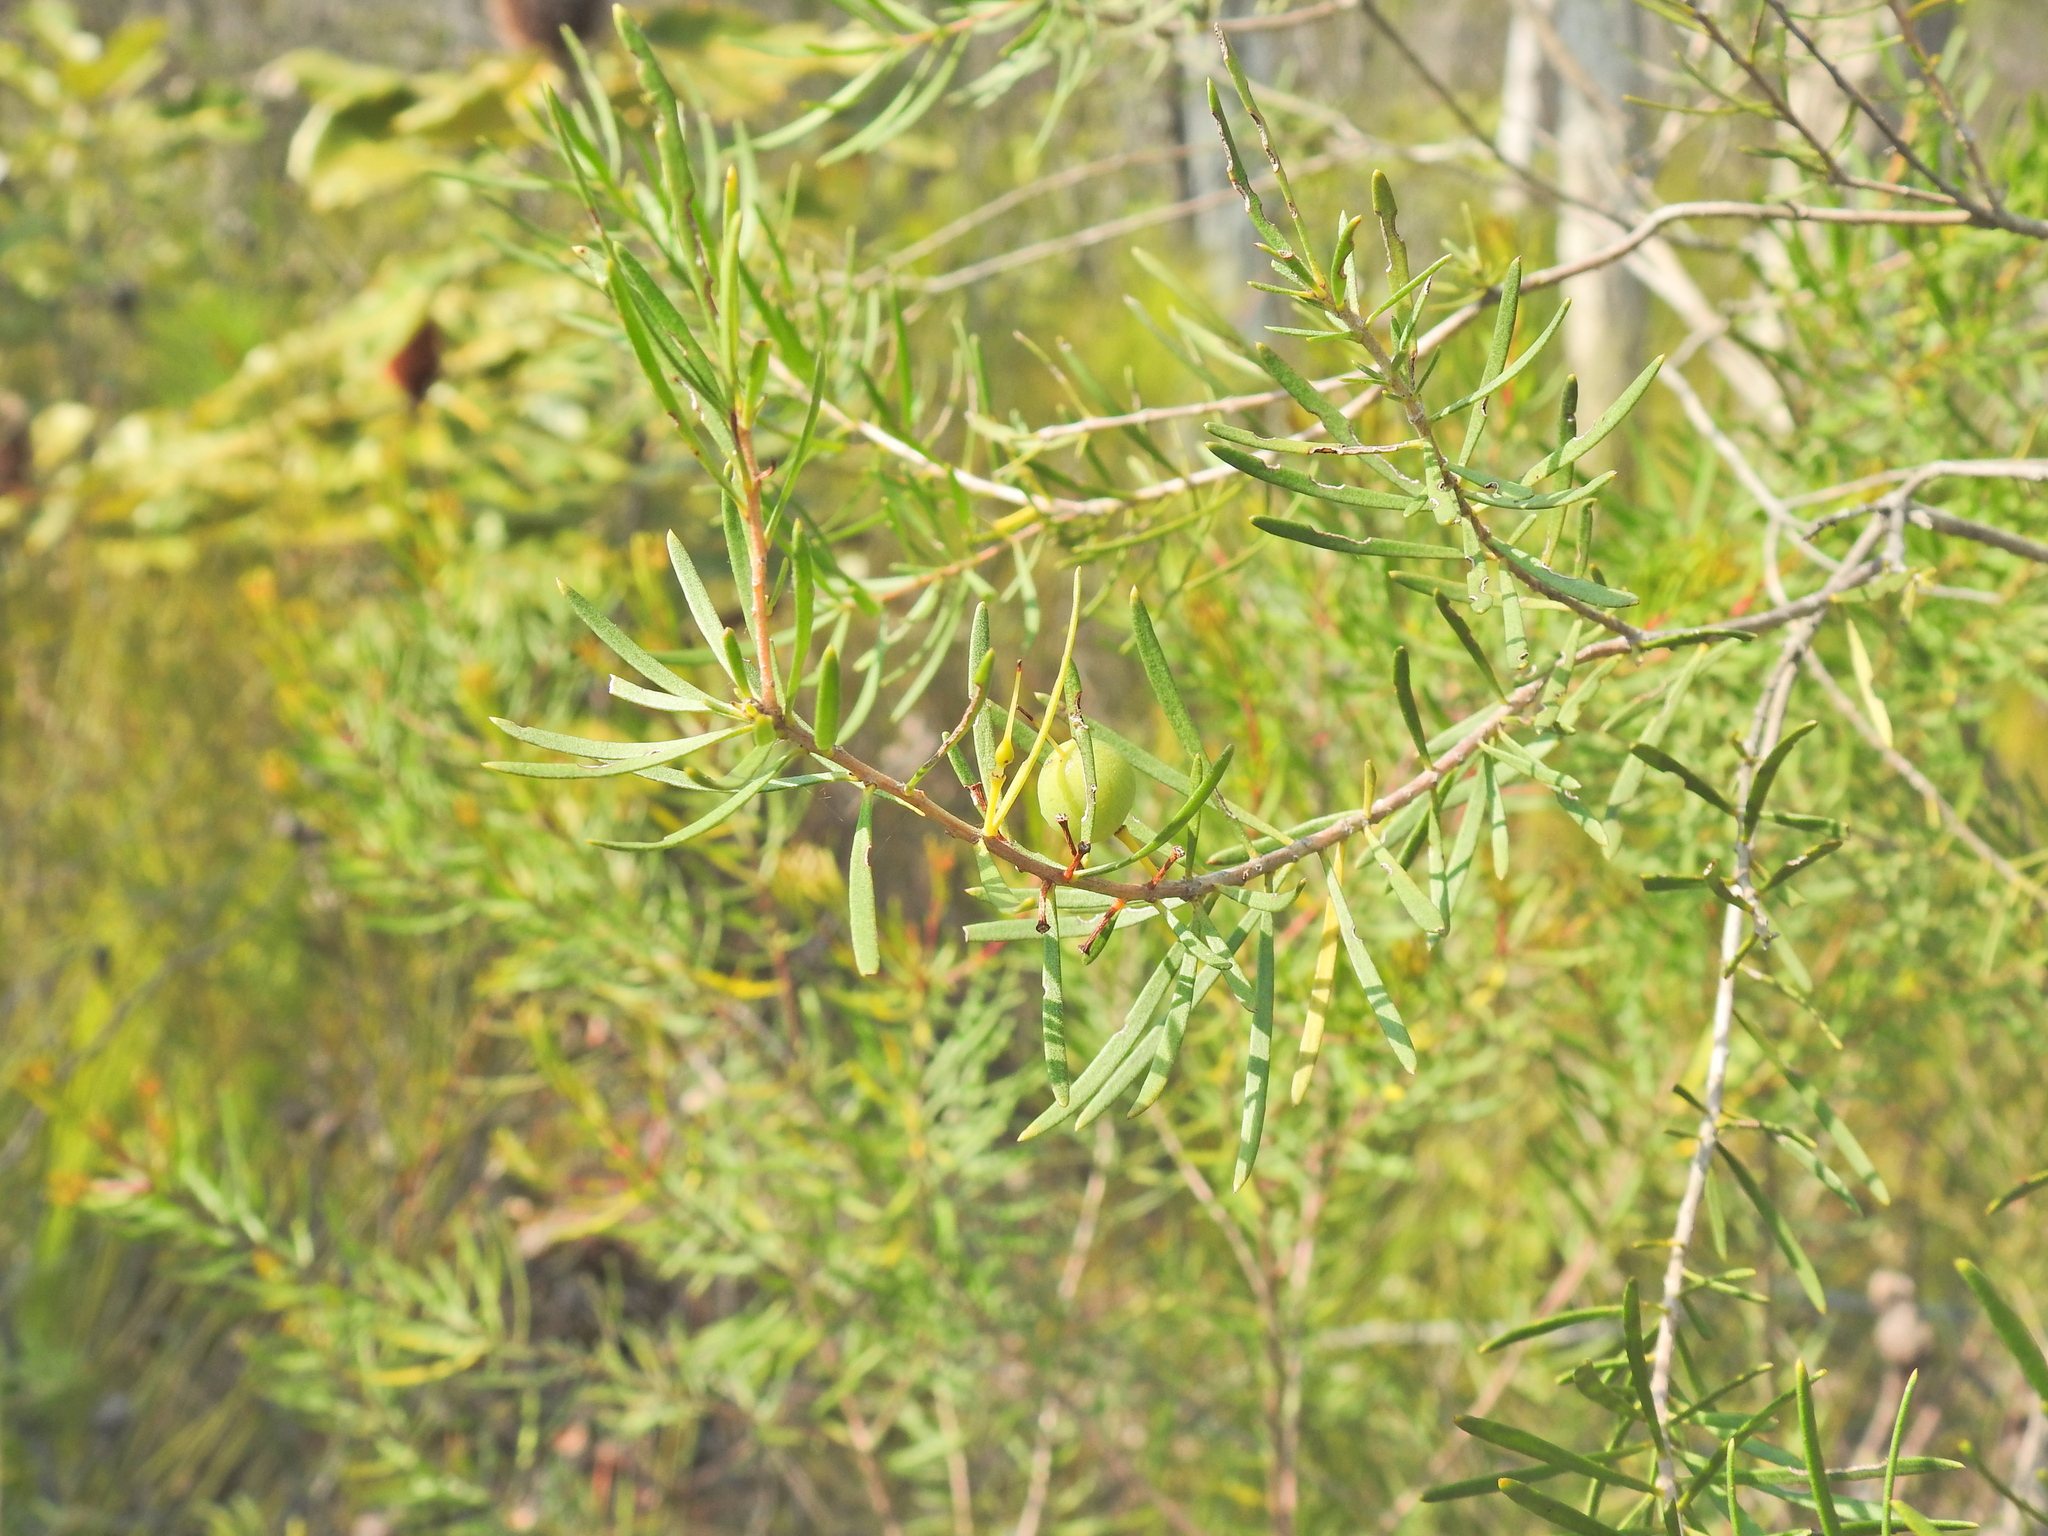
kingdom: Plantae
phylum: Tracheophyta
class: Magnoliopsida
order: Proteales
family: Proteaceae
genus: Persoonia
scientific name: Persoonia virgata
